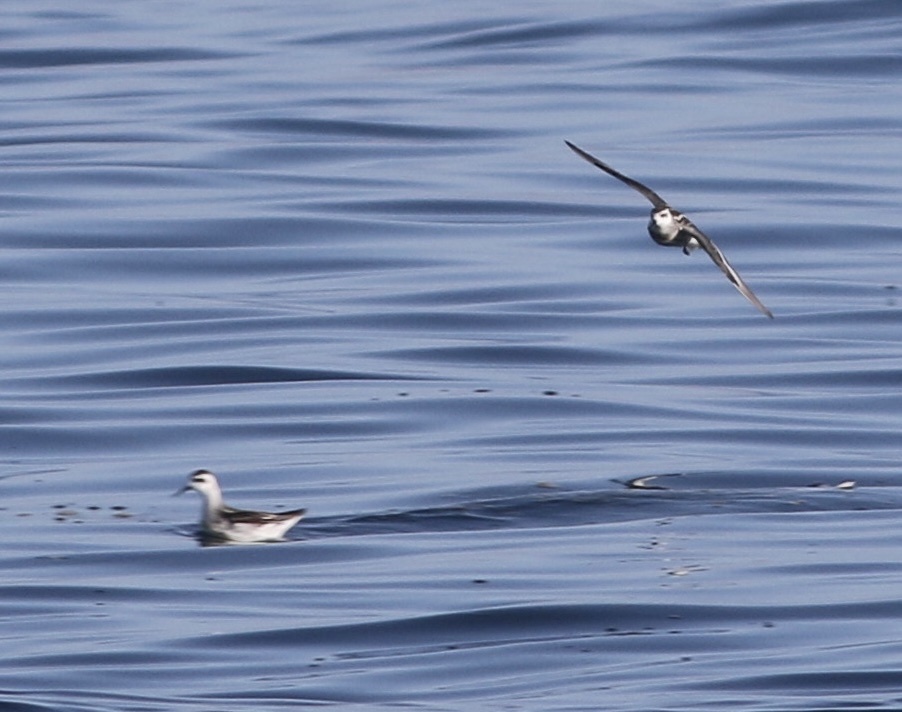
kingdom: Animalia
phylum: Chordata
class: Aves
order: Charadriiformes
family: Scolopacidae
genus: Phalaropus
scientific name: Phalaropus lobatus
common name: Red-necked phalarope
